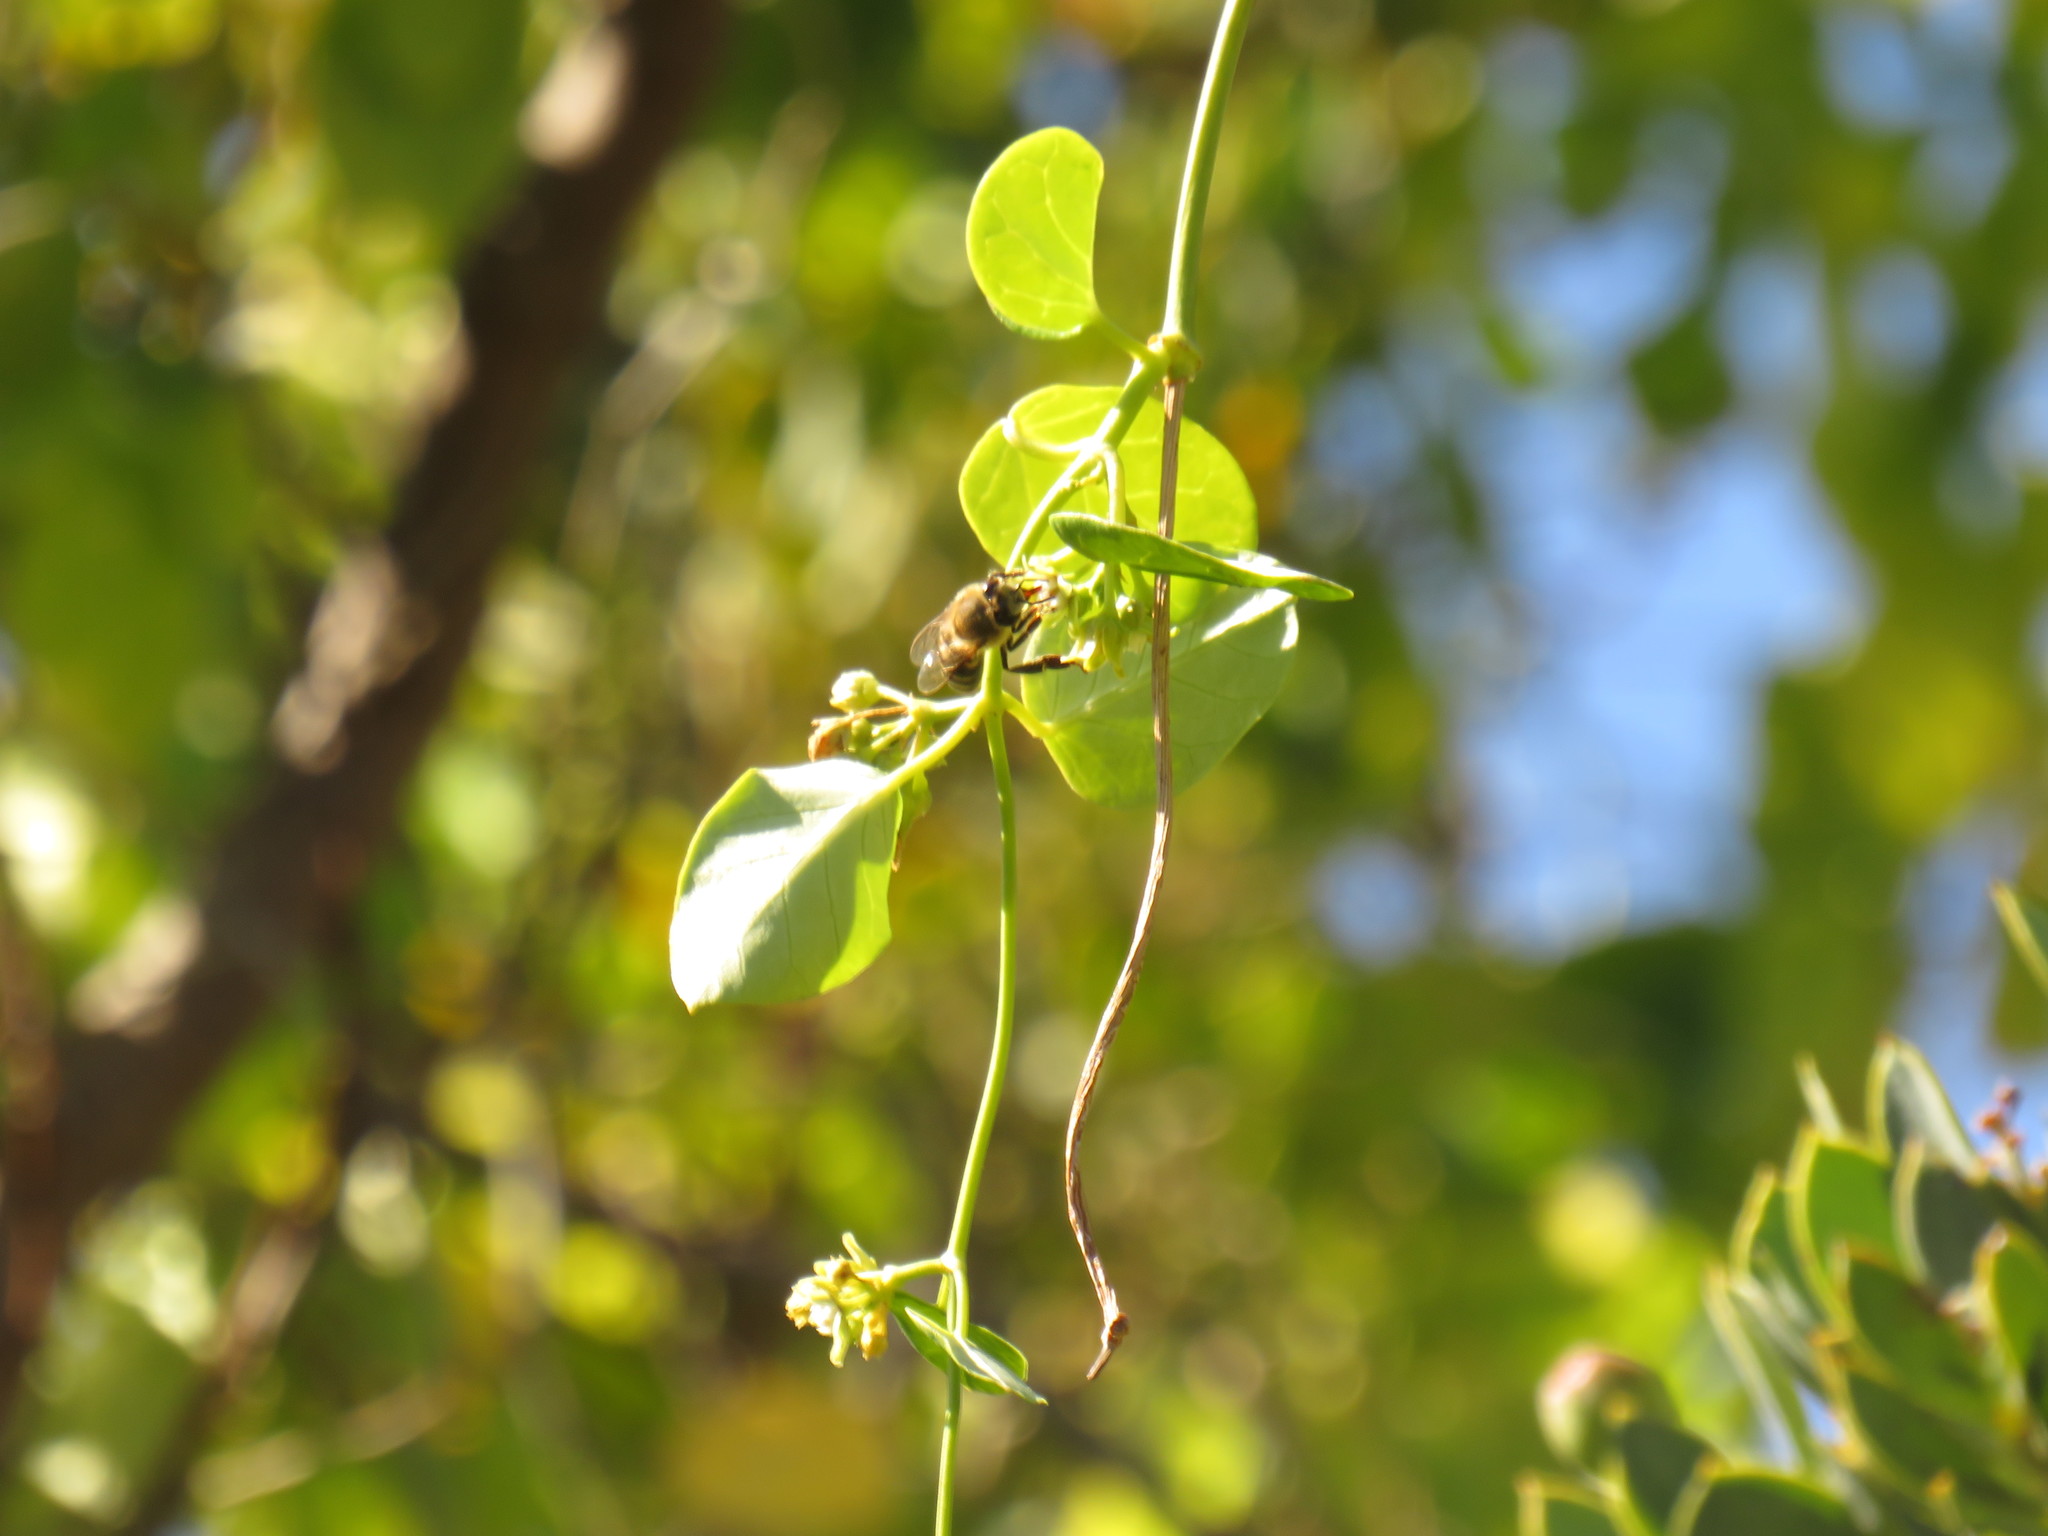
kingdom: Animalia
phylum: Arthropoda
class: Insecta
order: Hymenoptera
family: Apidae
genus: Apis
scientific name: Apis mellifera
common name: Honey bee
